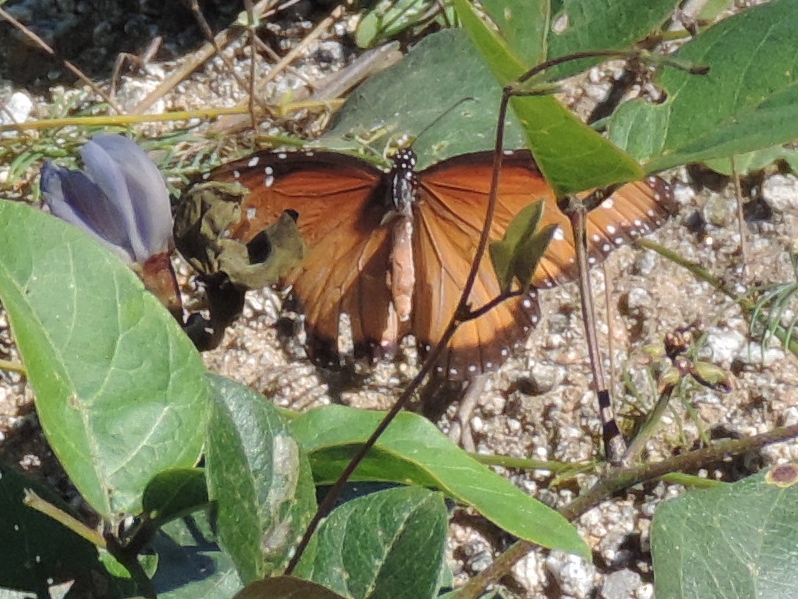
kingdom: Animalia
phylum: Arthropoda
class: Insecta
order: Lepidoptera
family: Nymphalidae
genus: Danaus
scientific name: Danaus gilippus
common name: Queen
